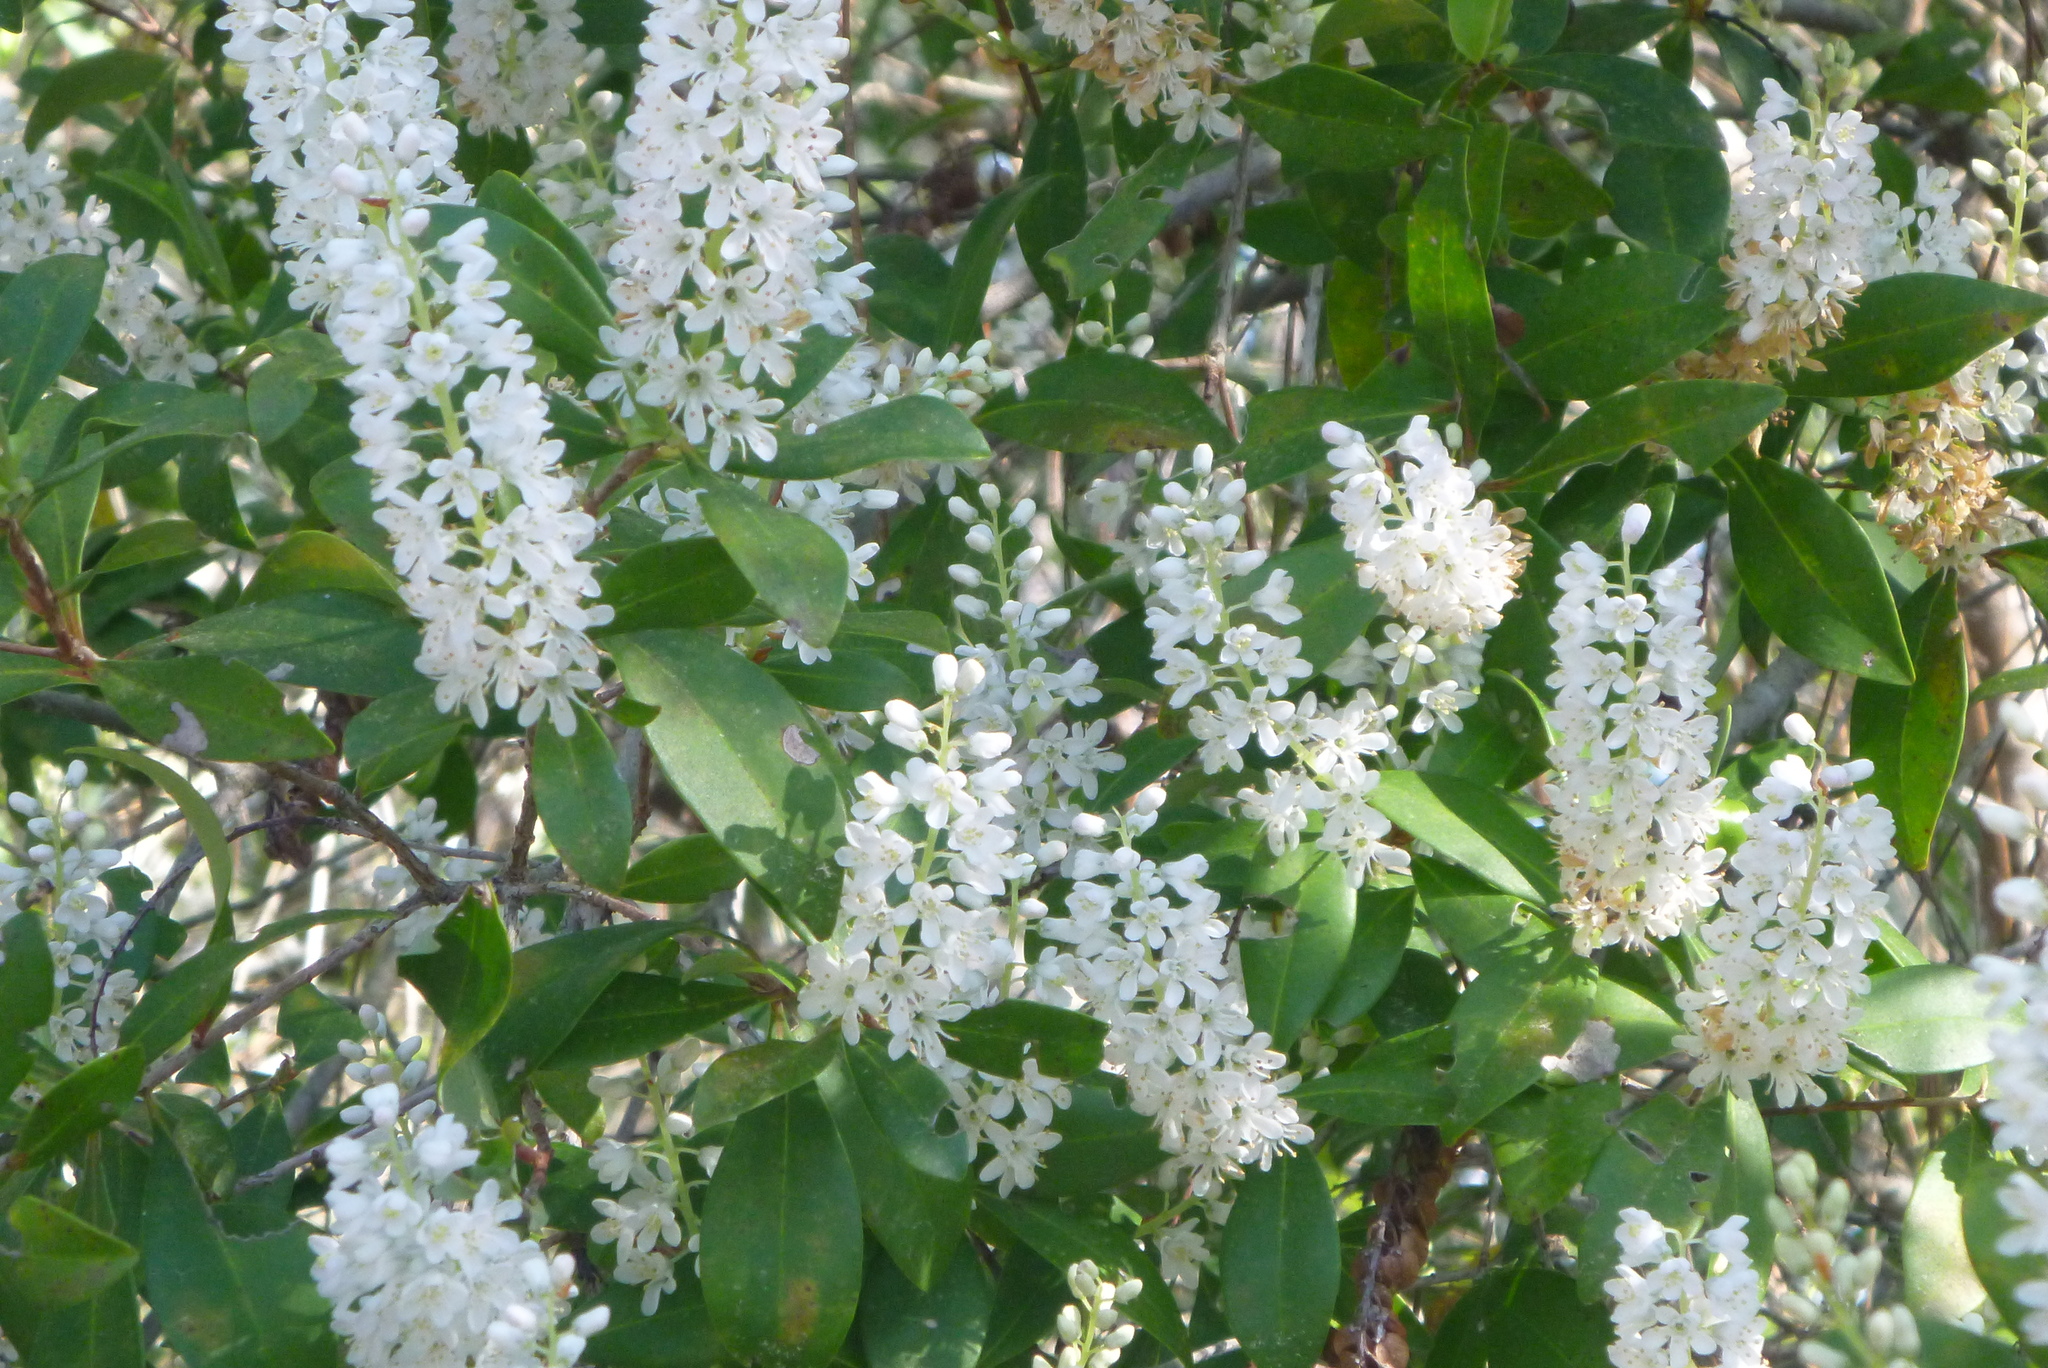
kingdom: Plantae
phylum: Tracheophyta
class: Magnoliopsida
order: Ericales
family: Cyrillaceae
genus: Cliftonia
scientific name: Cliftonia monophylla
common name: Titi
